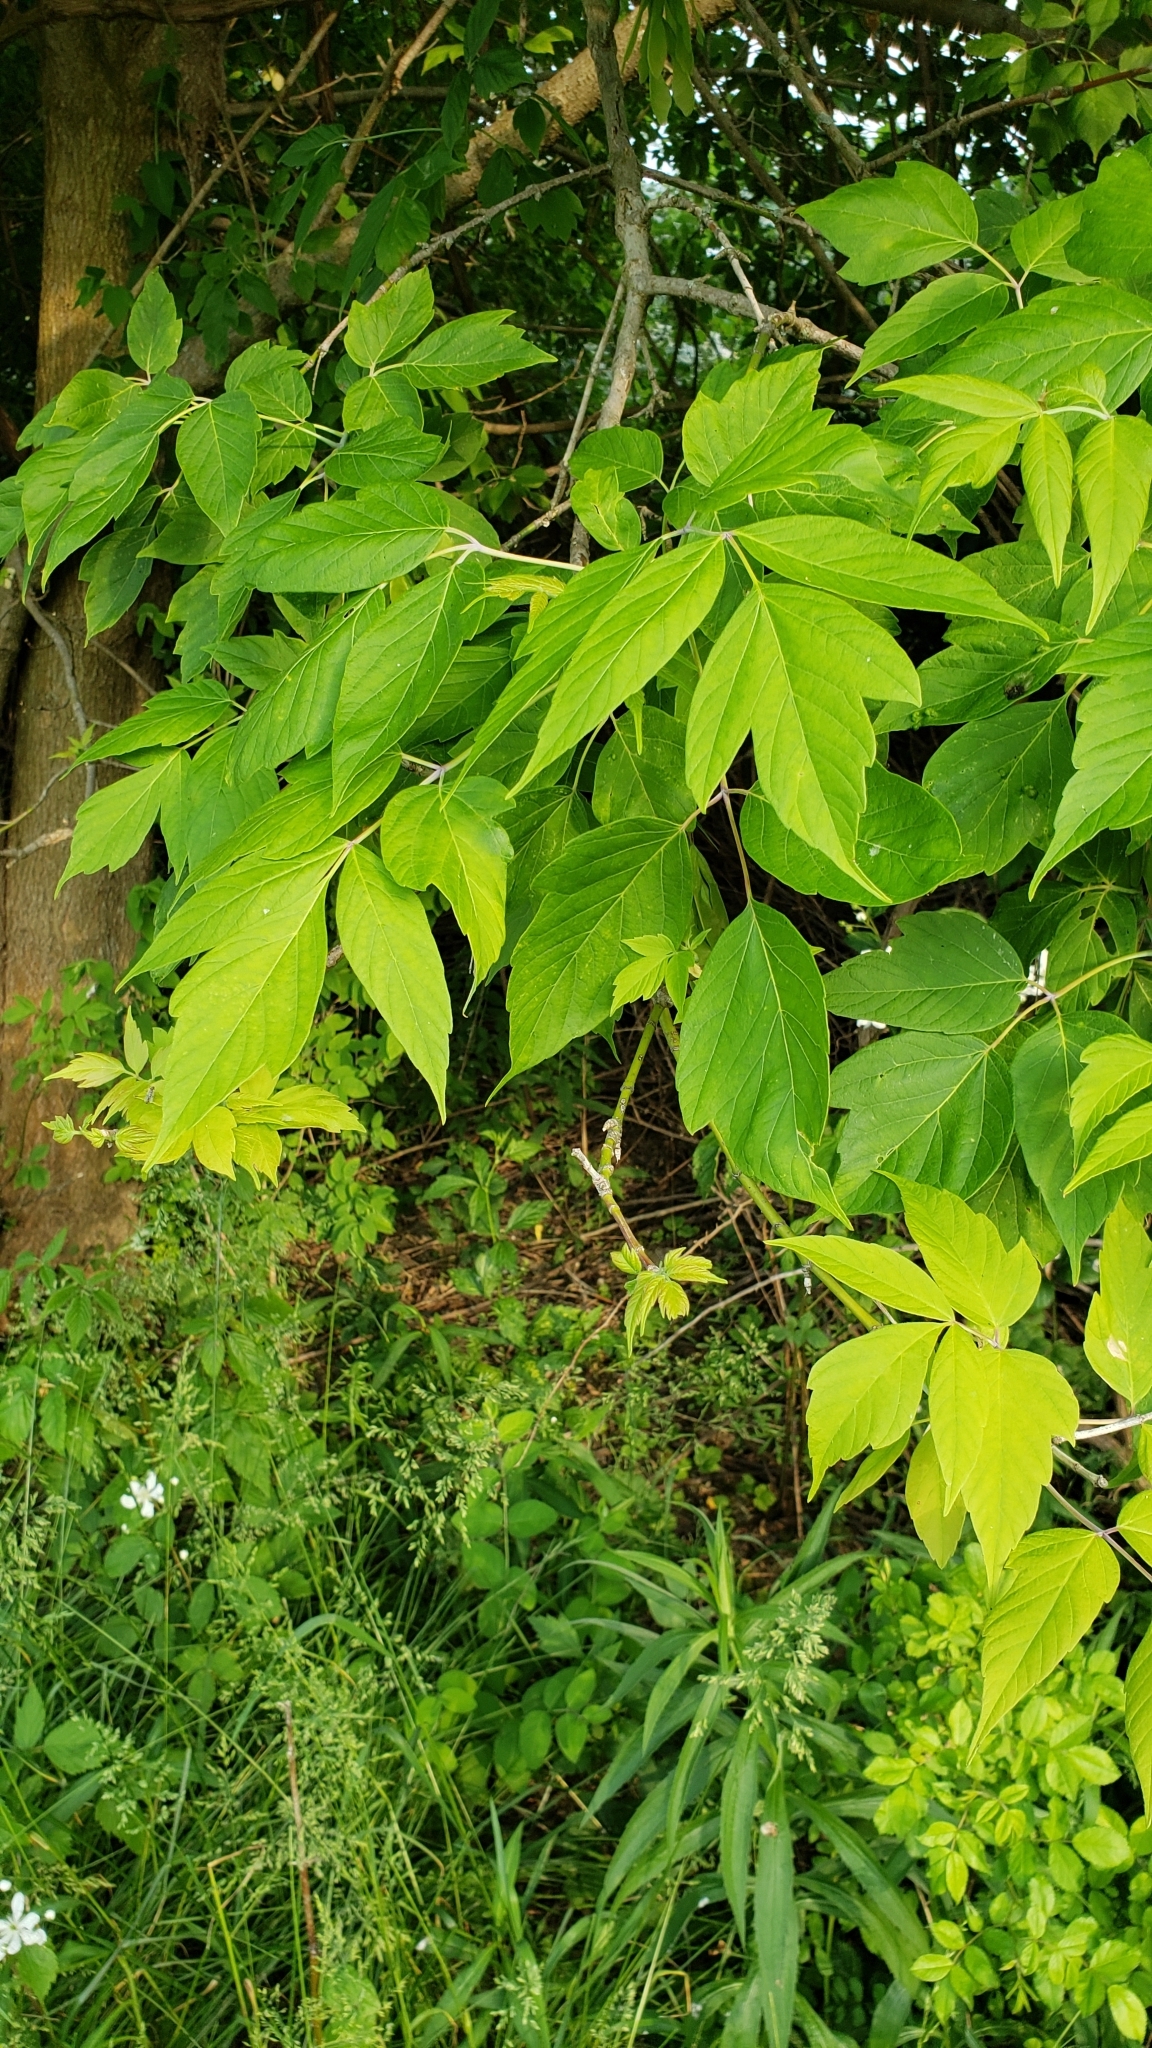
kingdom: Plantae
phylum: Tracheophyta
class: Magnoliopsida
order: Sapindales
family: Sapindaceae
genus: Acer
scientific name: Acer negundo
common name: Ashleaf maple
